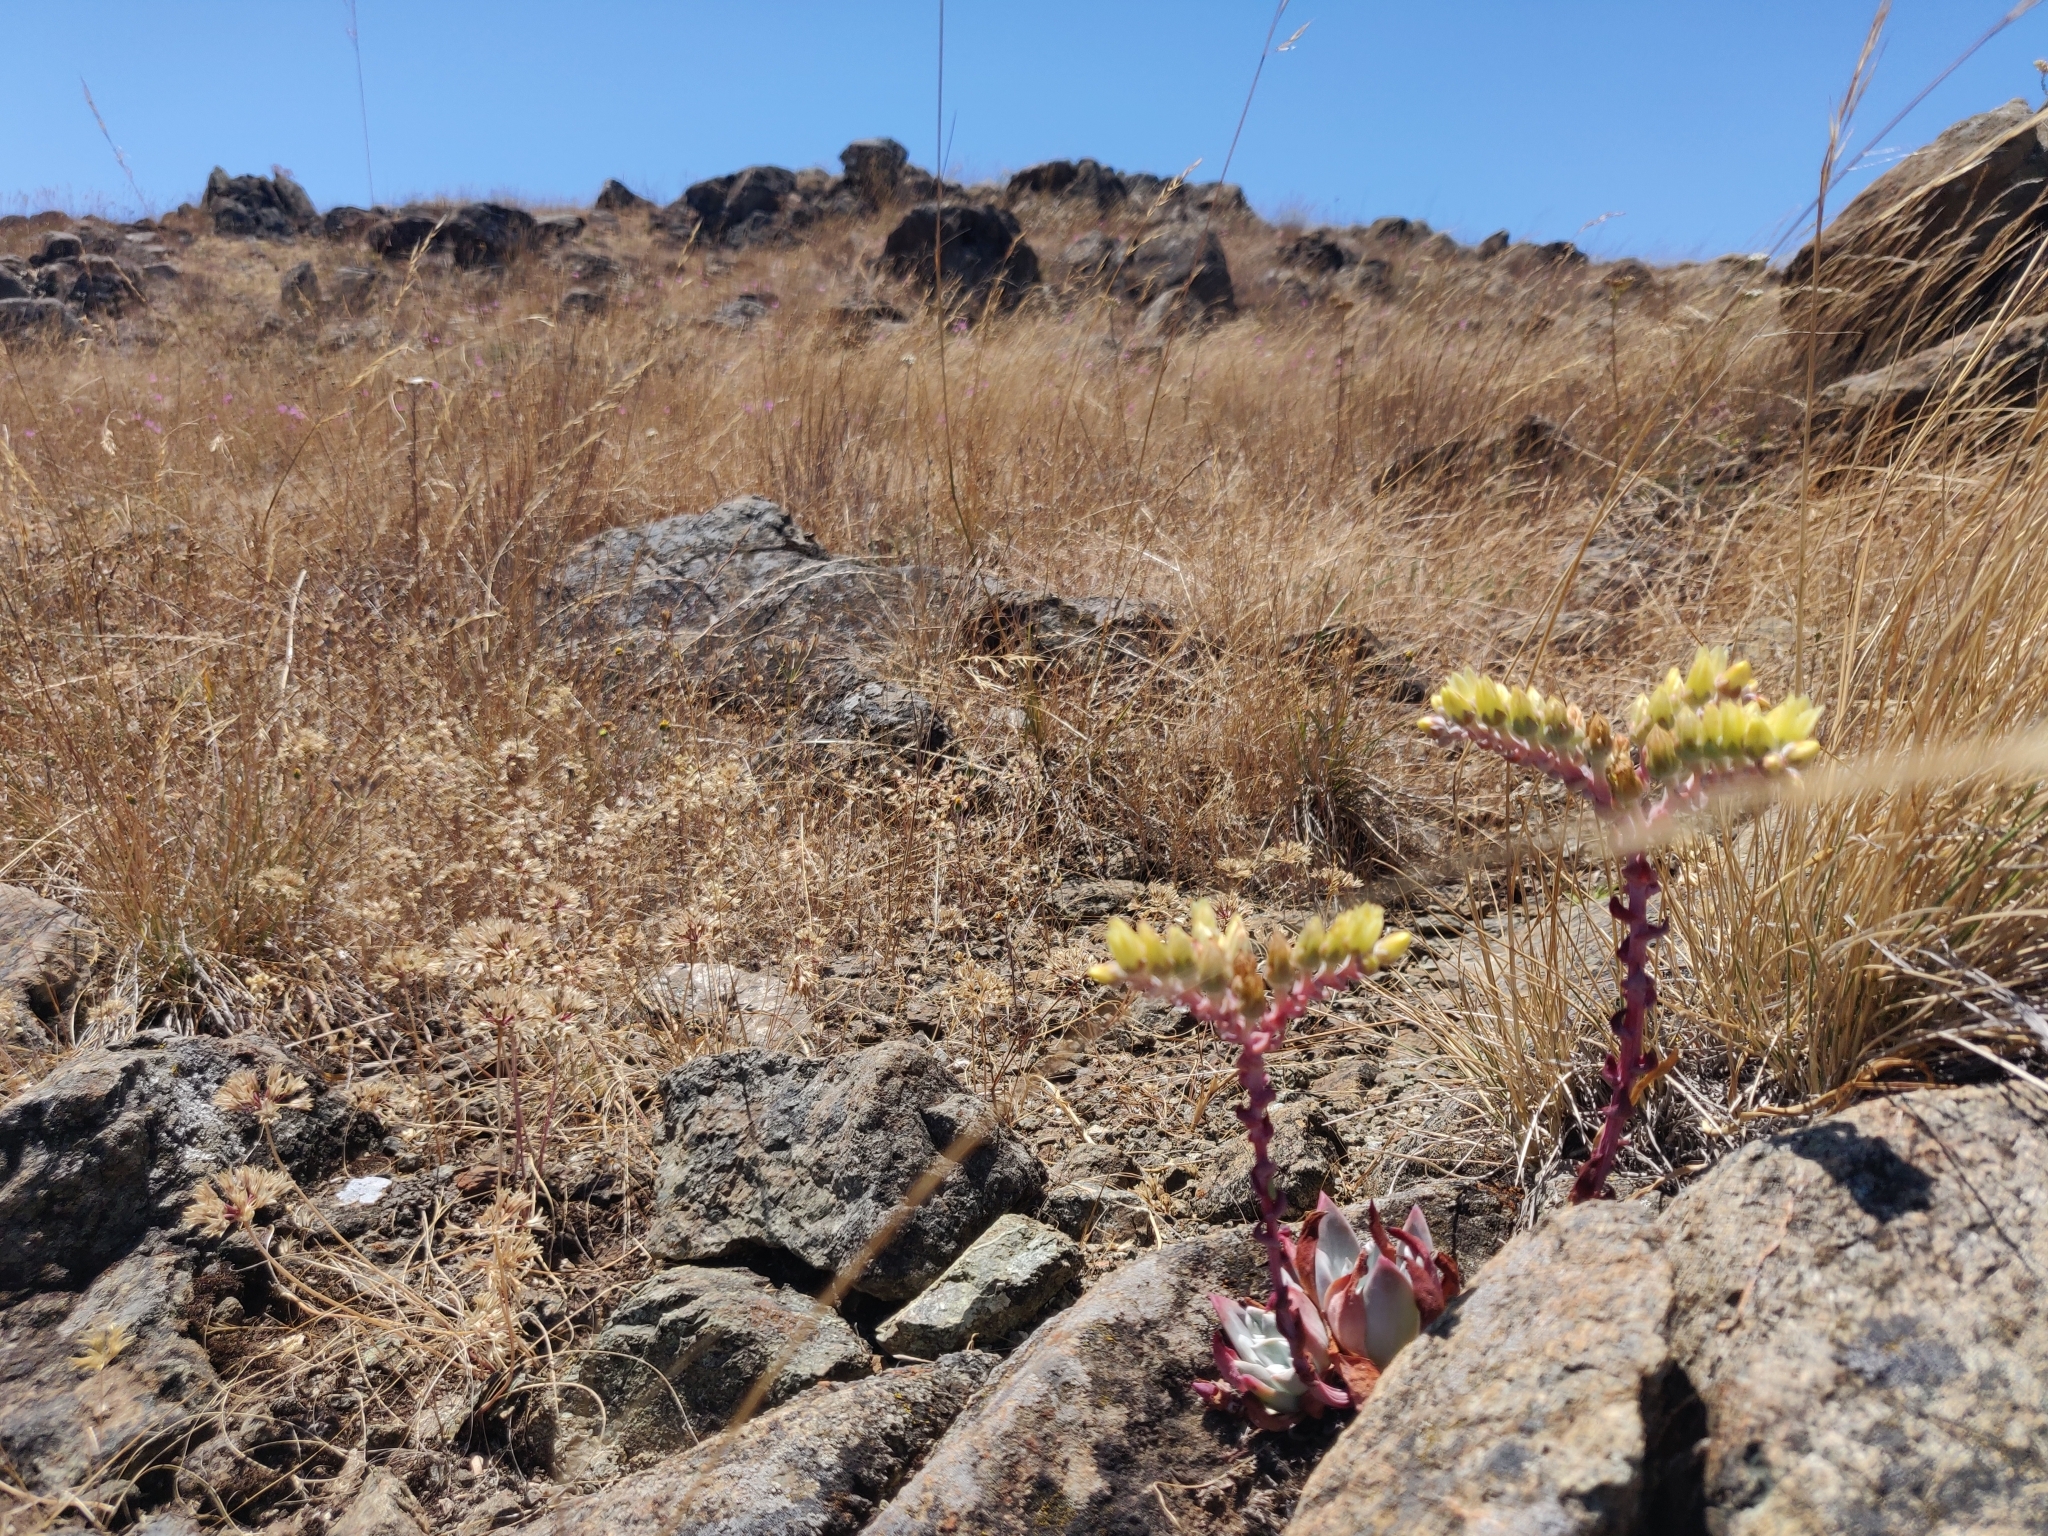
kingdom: Plantae
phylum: Tracheophyta
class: Magnoliopsida
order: Saxifragales
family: Crassulaceae
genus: Dudleya
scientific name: Dudleya farinosa
